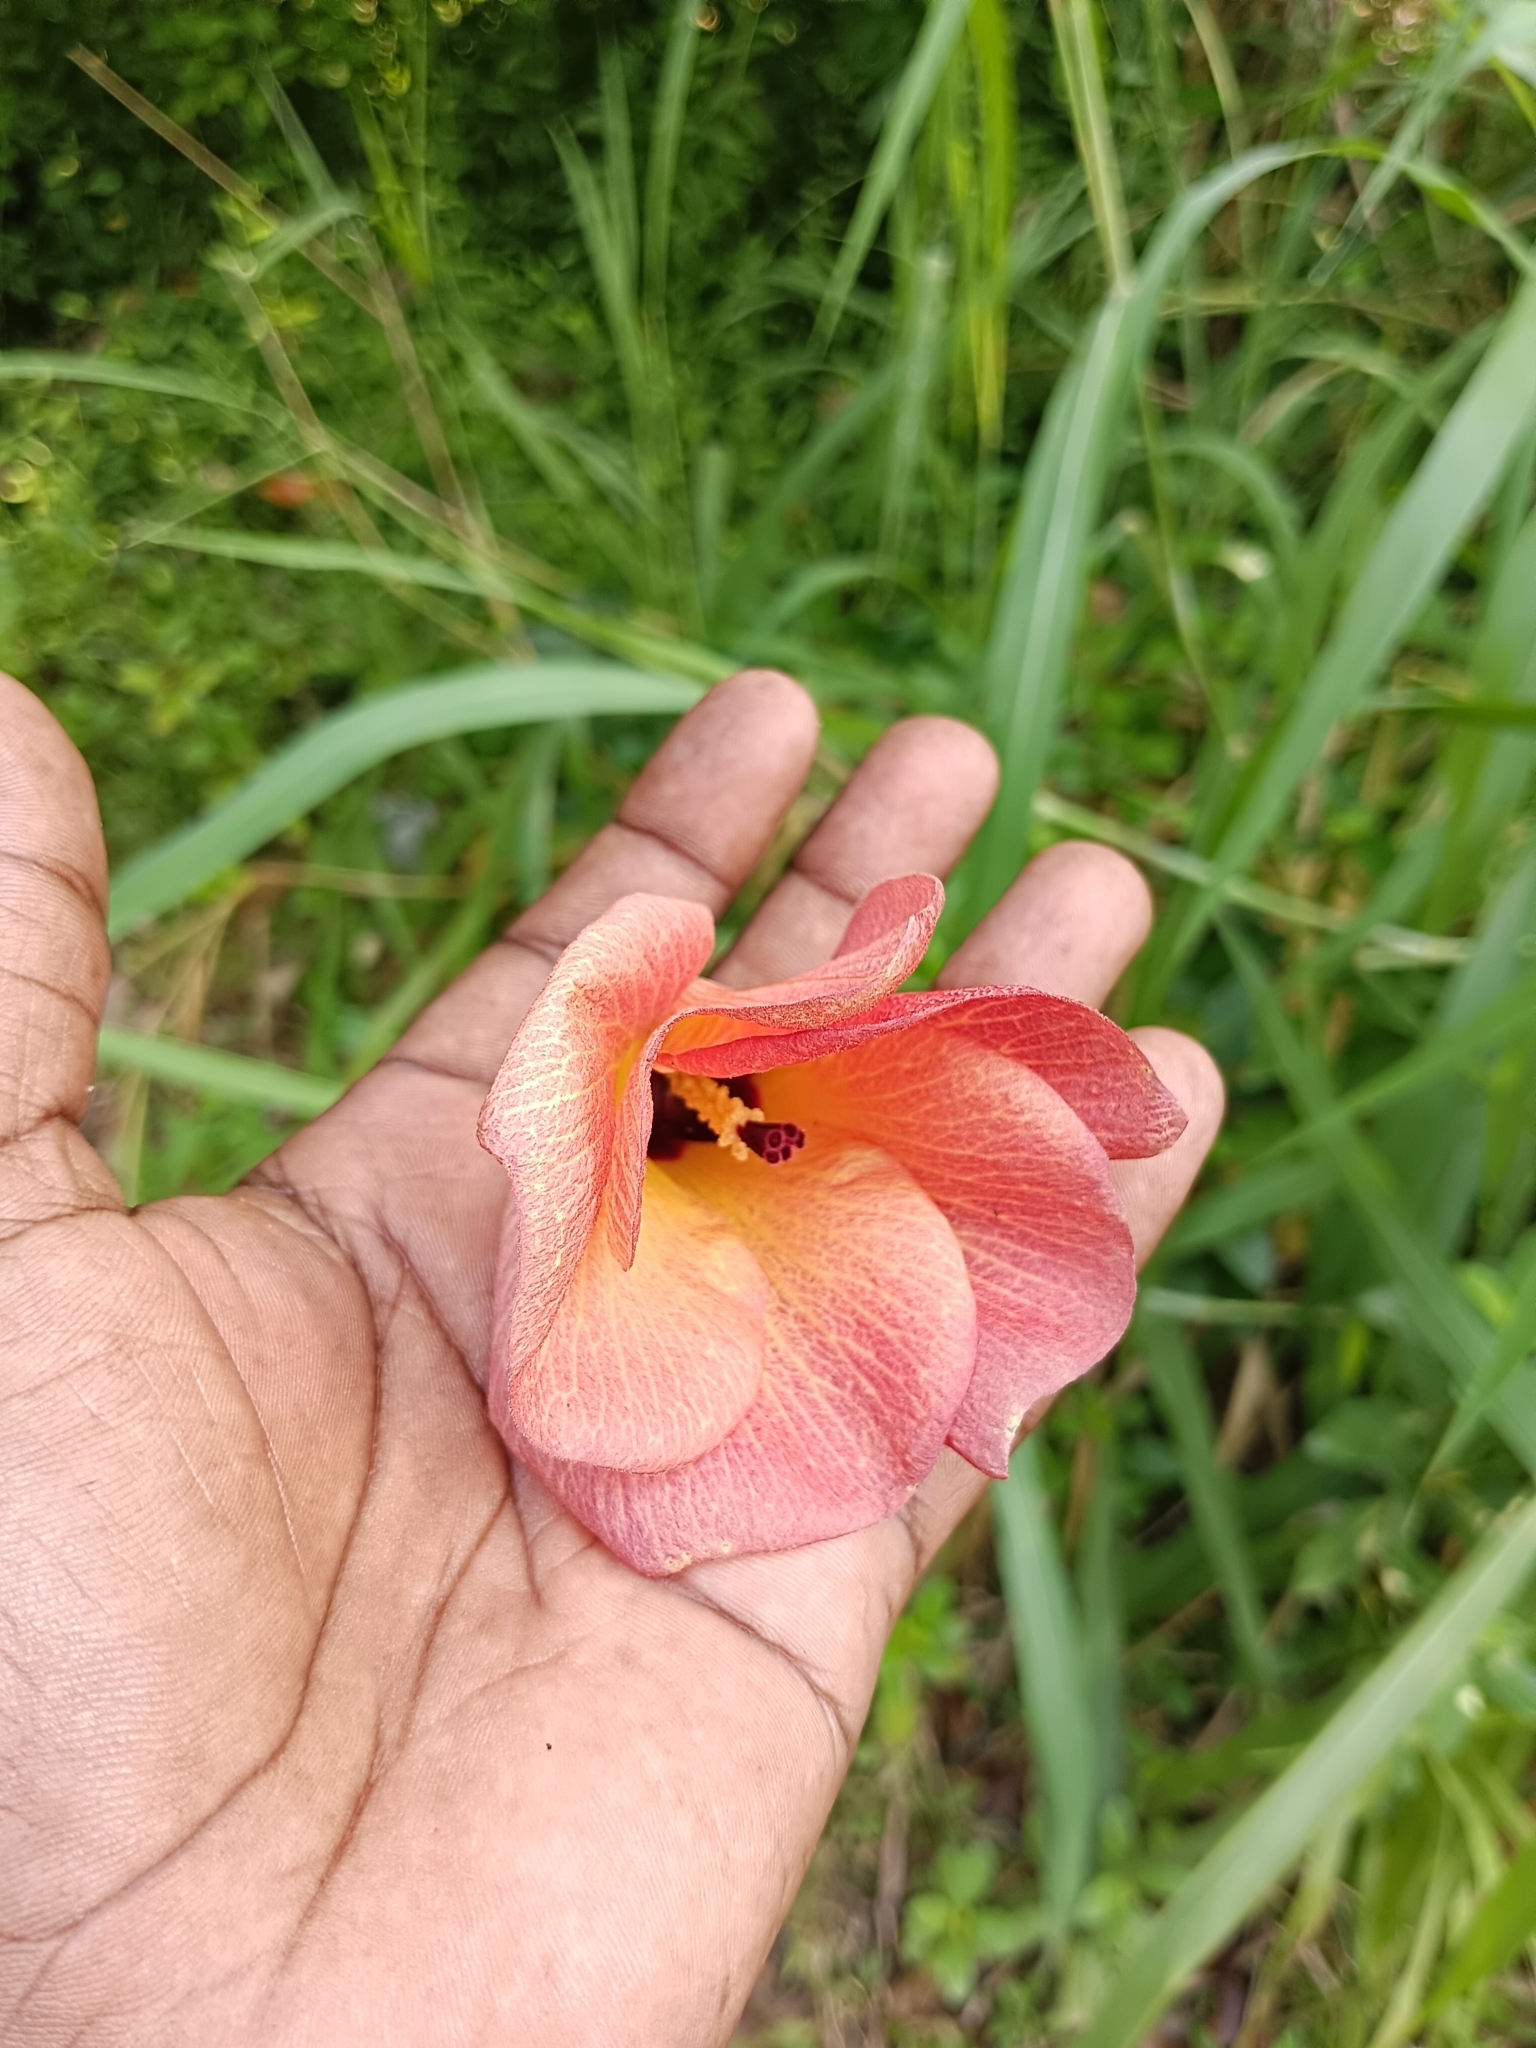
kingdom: Plantae
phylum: Tracheophyta
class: Magnoliopsida
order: Malvales
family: Malvaceae
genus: Talipariti
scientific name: Talipariti tiliaceum
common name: Sea hibiscus
